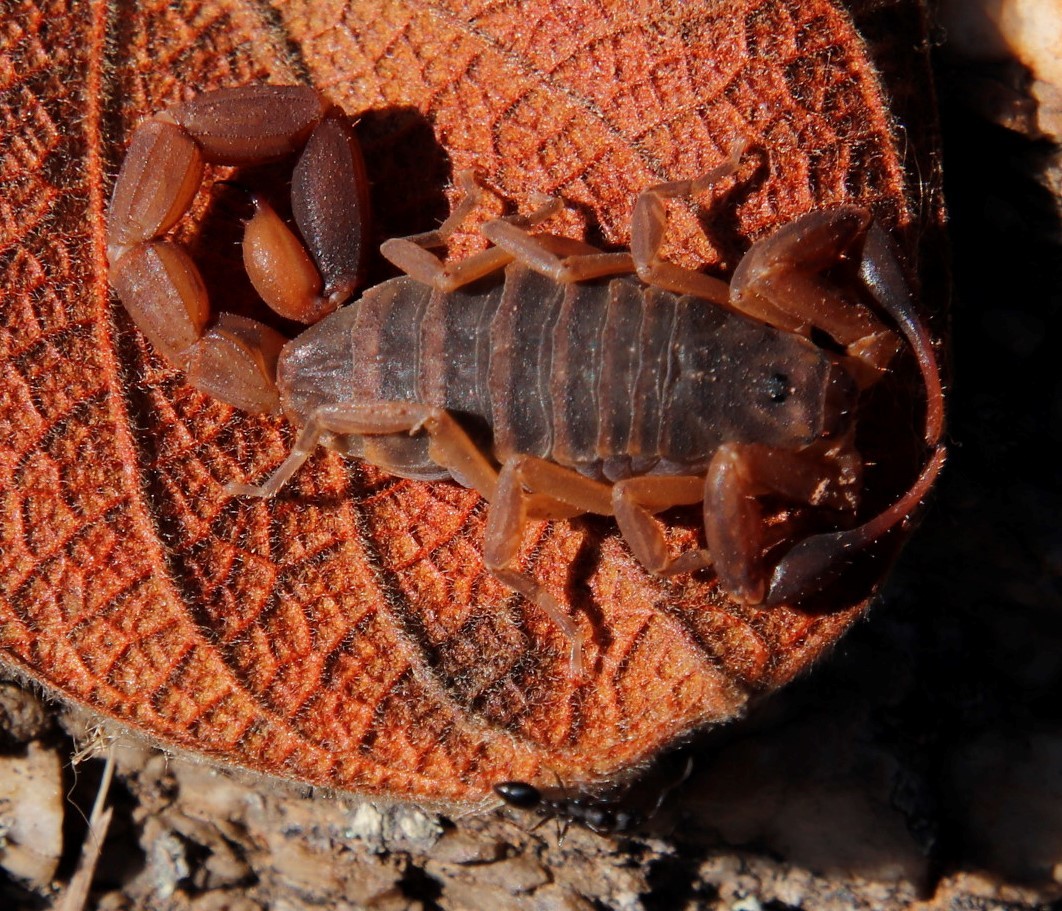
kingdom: Animalia
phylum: Arthropoda
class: Insecta
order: Hymenoptera
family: Formicidae
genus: Monomorium
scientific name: Monomorium junodi
